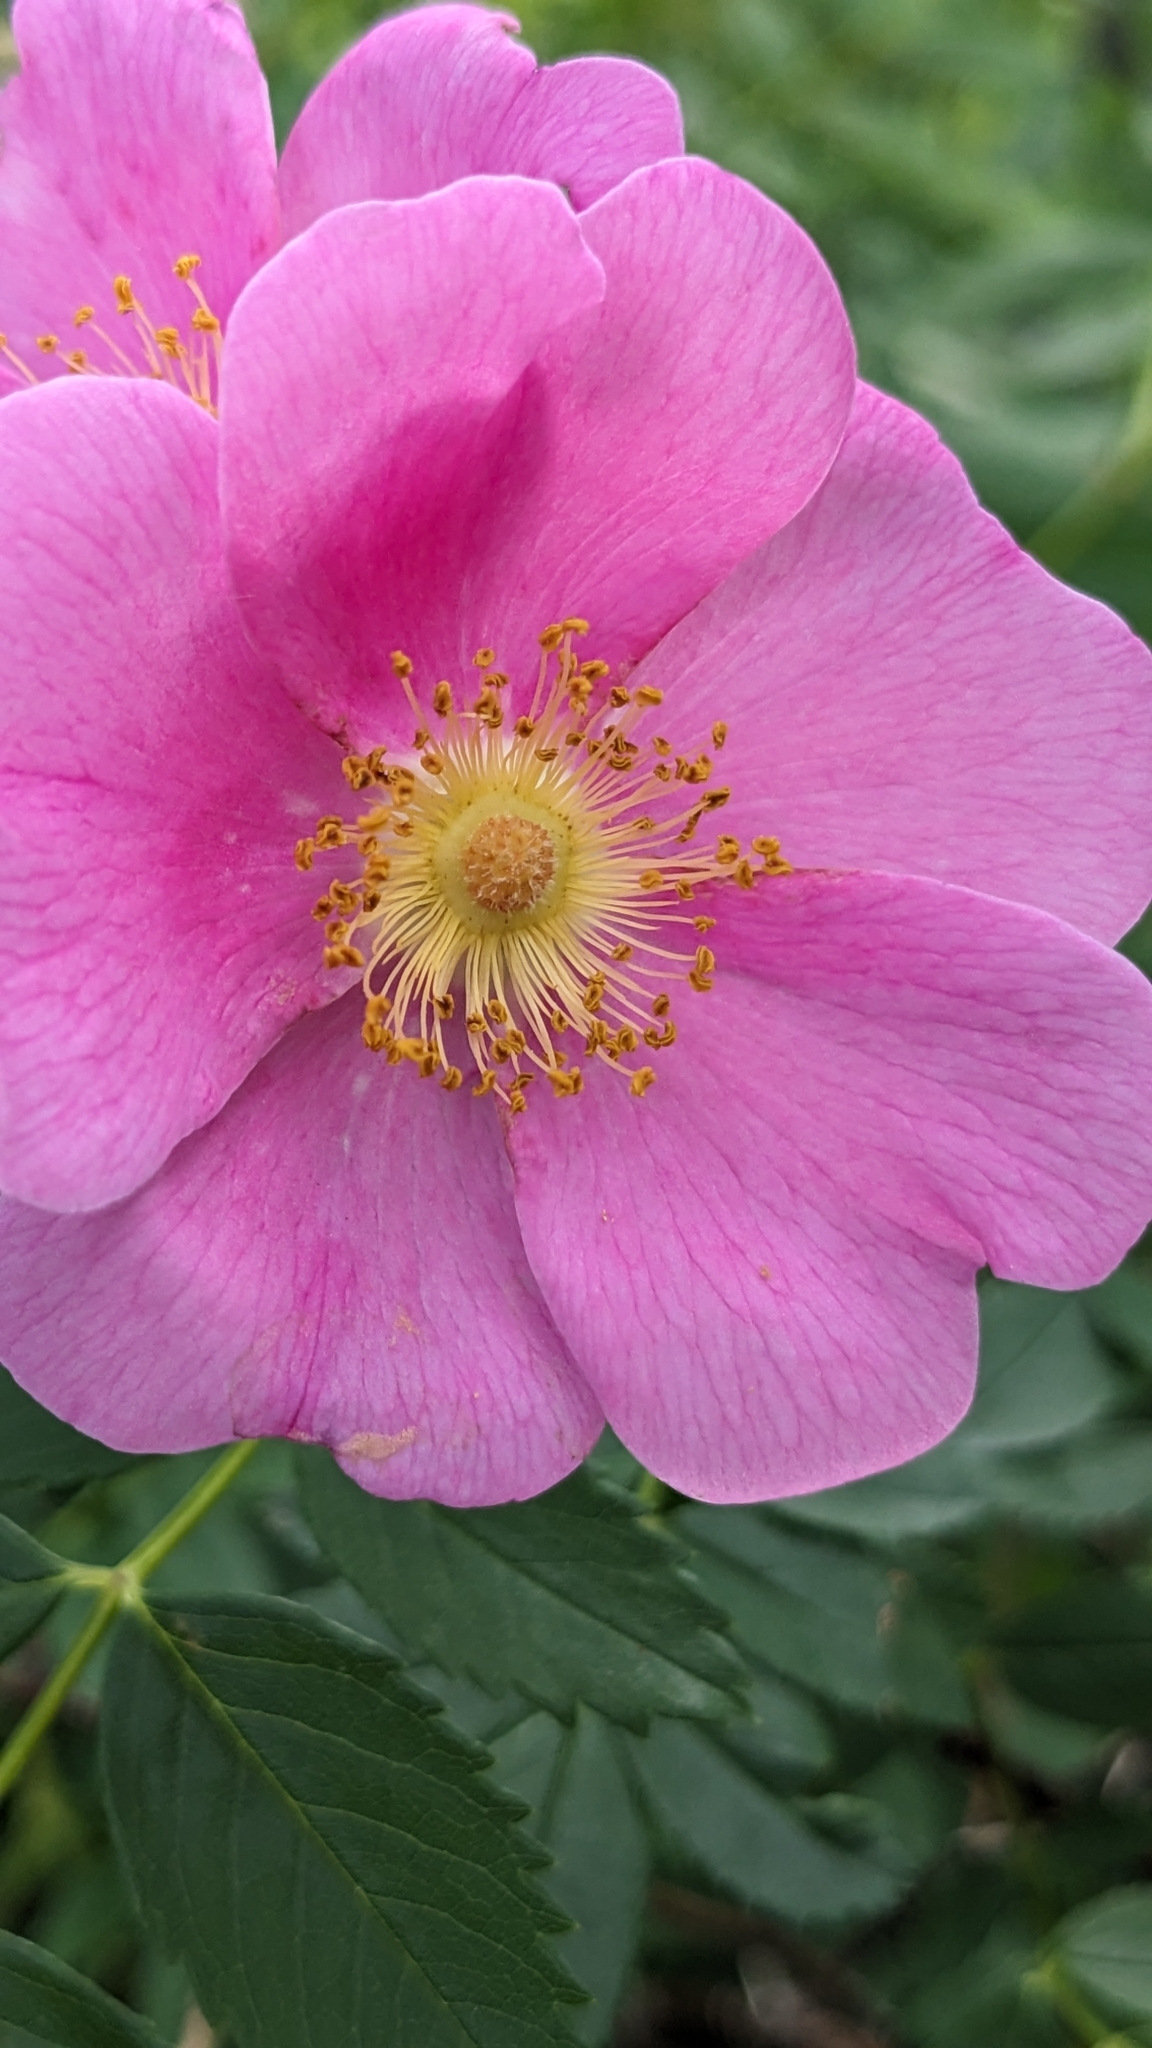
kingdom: Plantae
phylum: Tracheophyta
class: Magnoliopsida
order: Rosales
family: Rosaceae
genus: Rosa
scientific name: Rosa carolina
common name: Pasture rose
